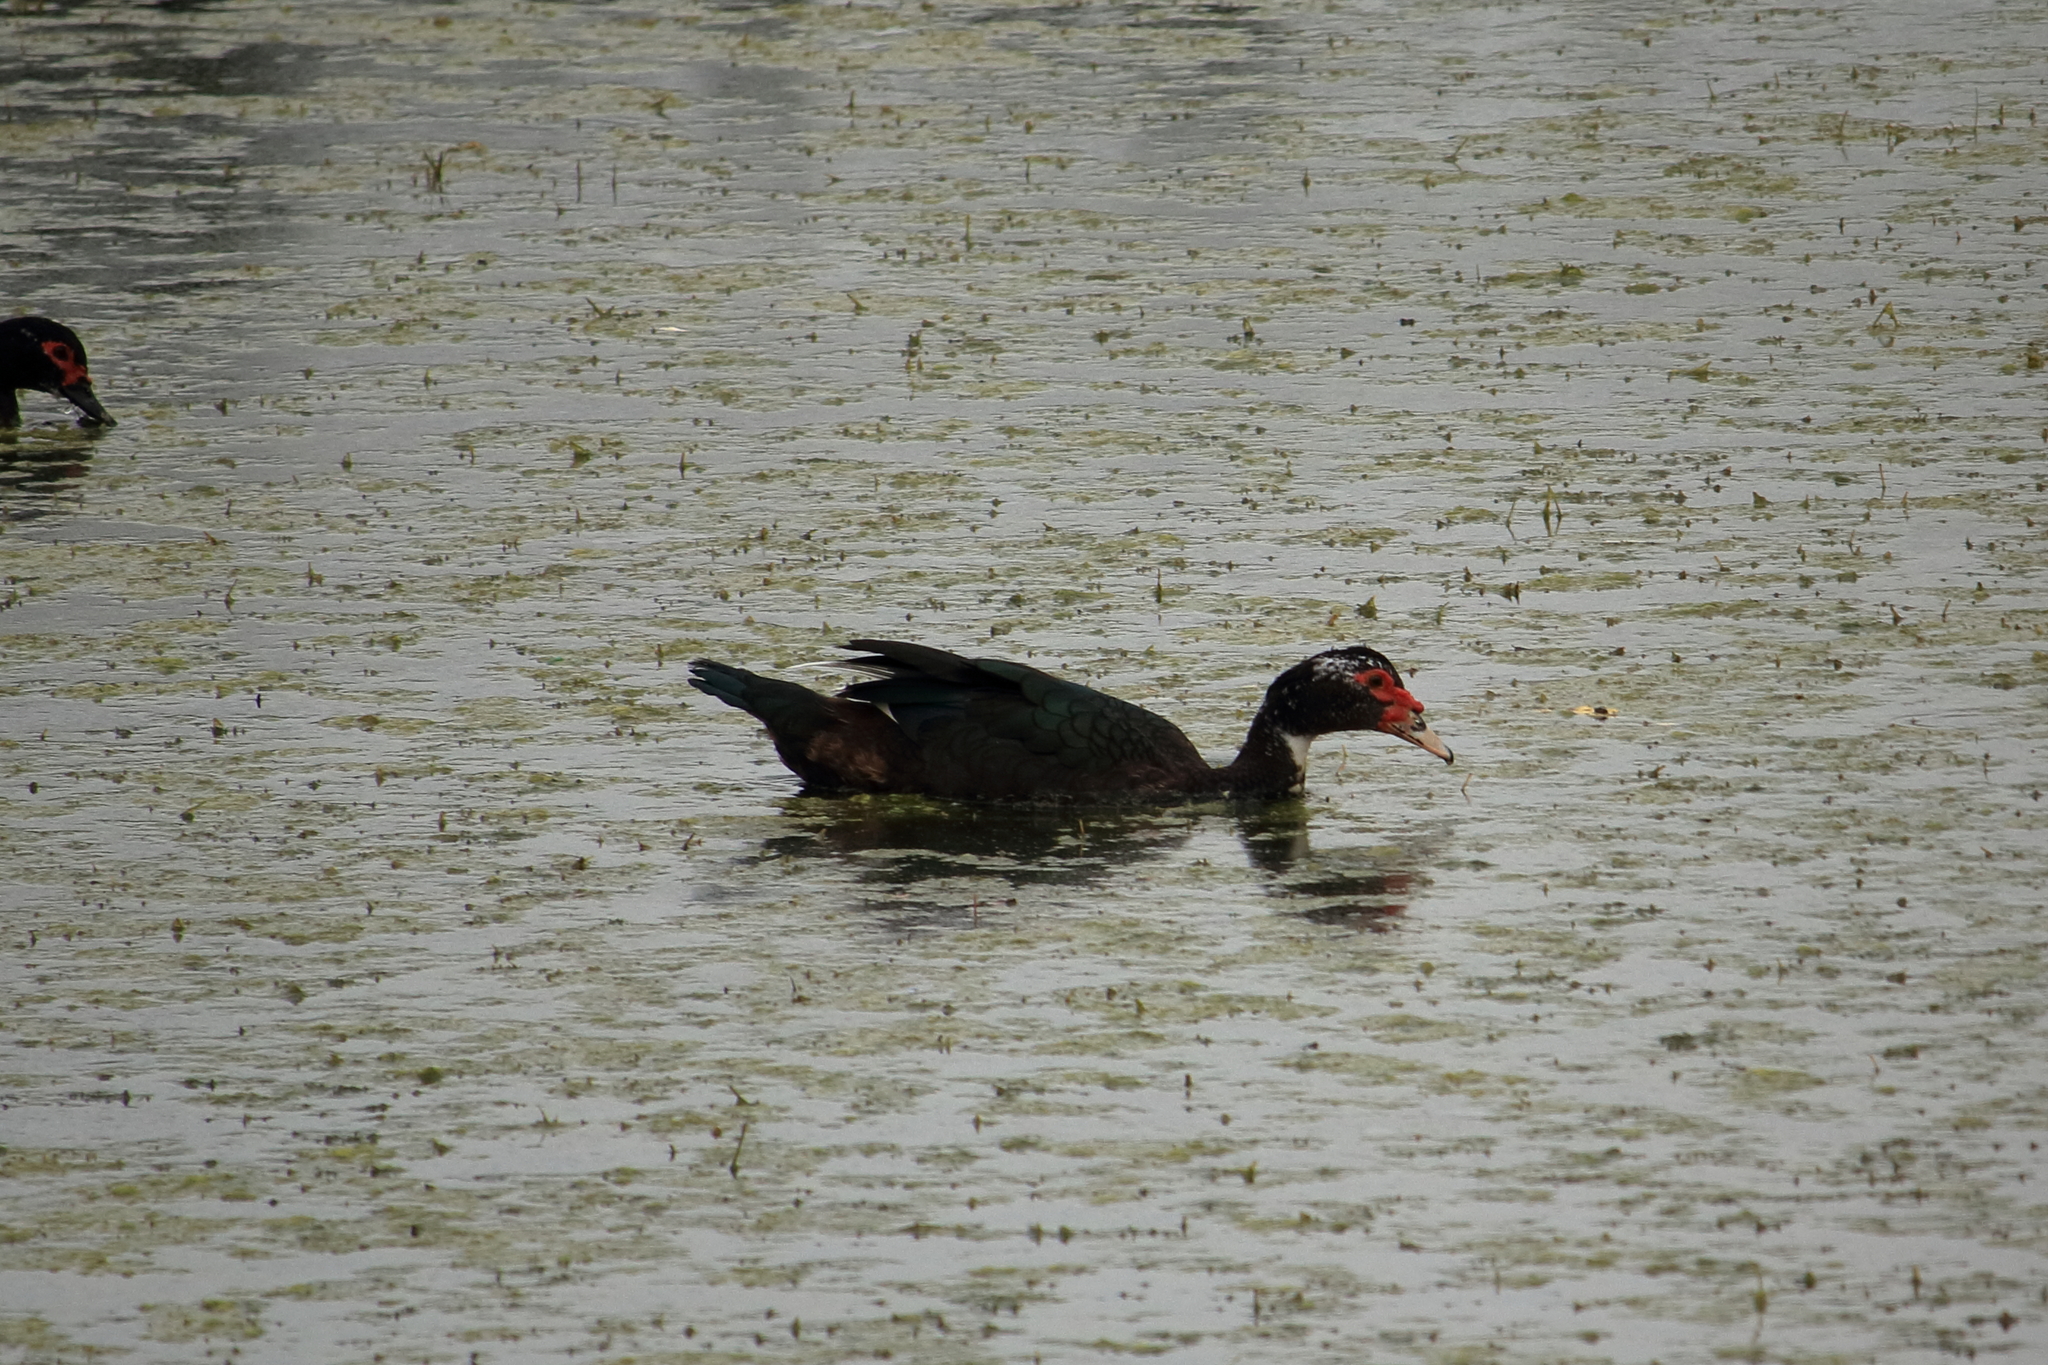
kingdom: Animalia
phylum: Chordata
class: Aves
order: Anseriformes
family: Anatidae
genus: Cairina
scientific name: Cairina moschata
